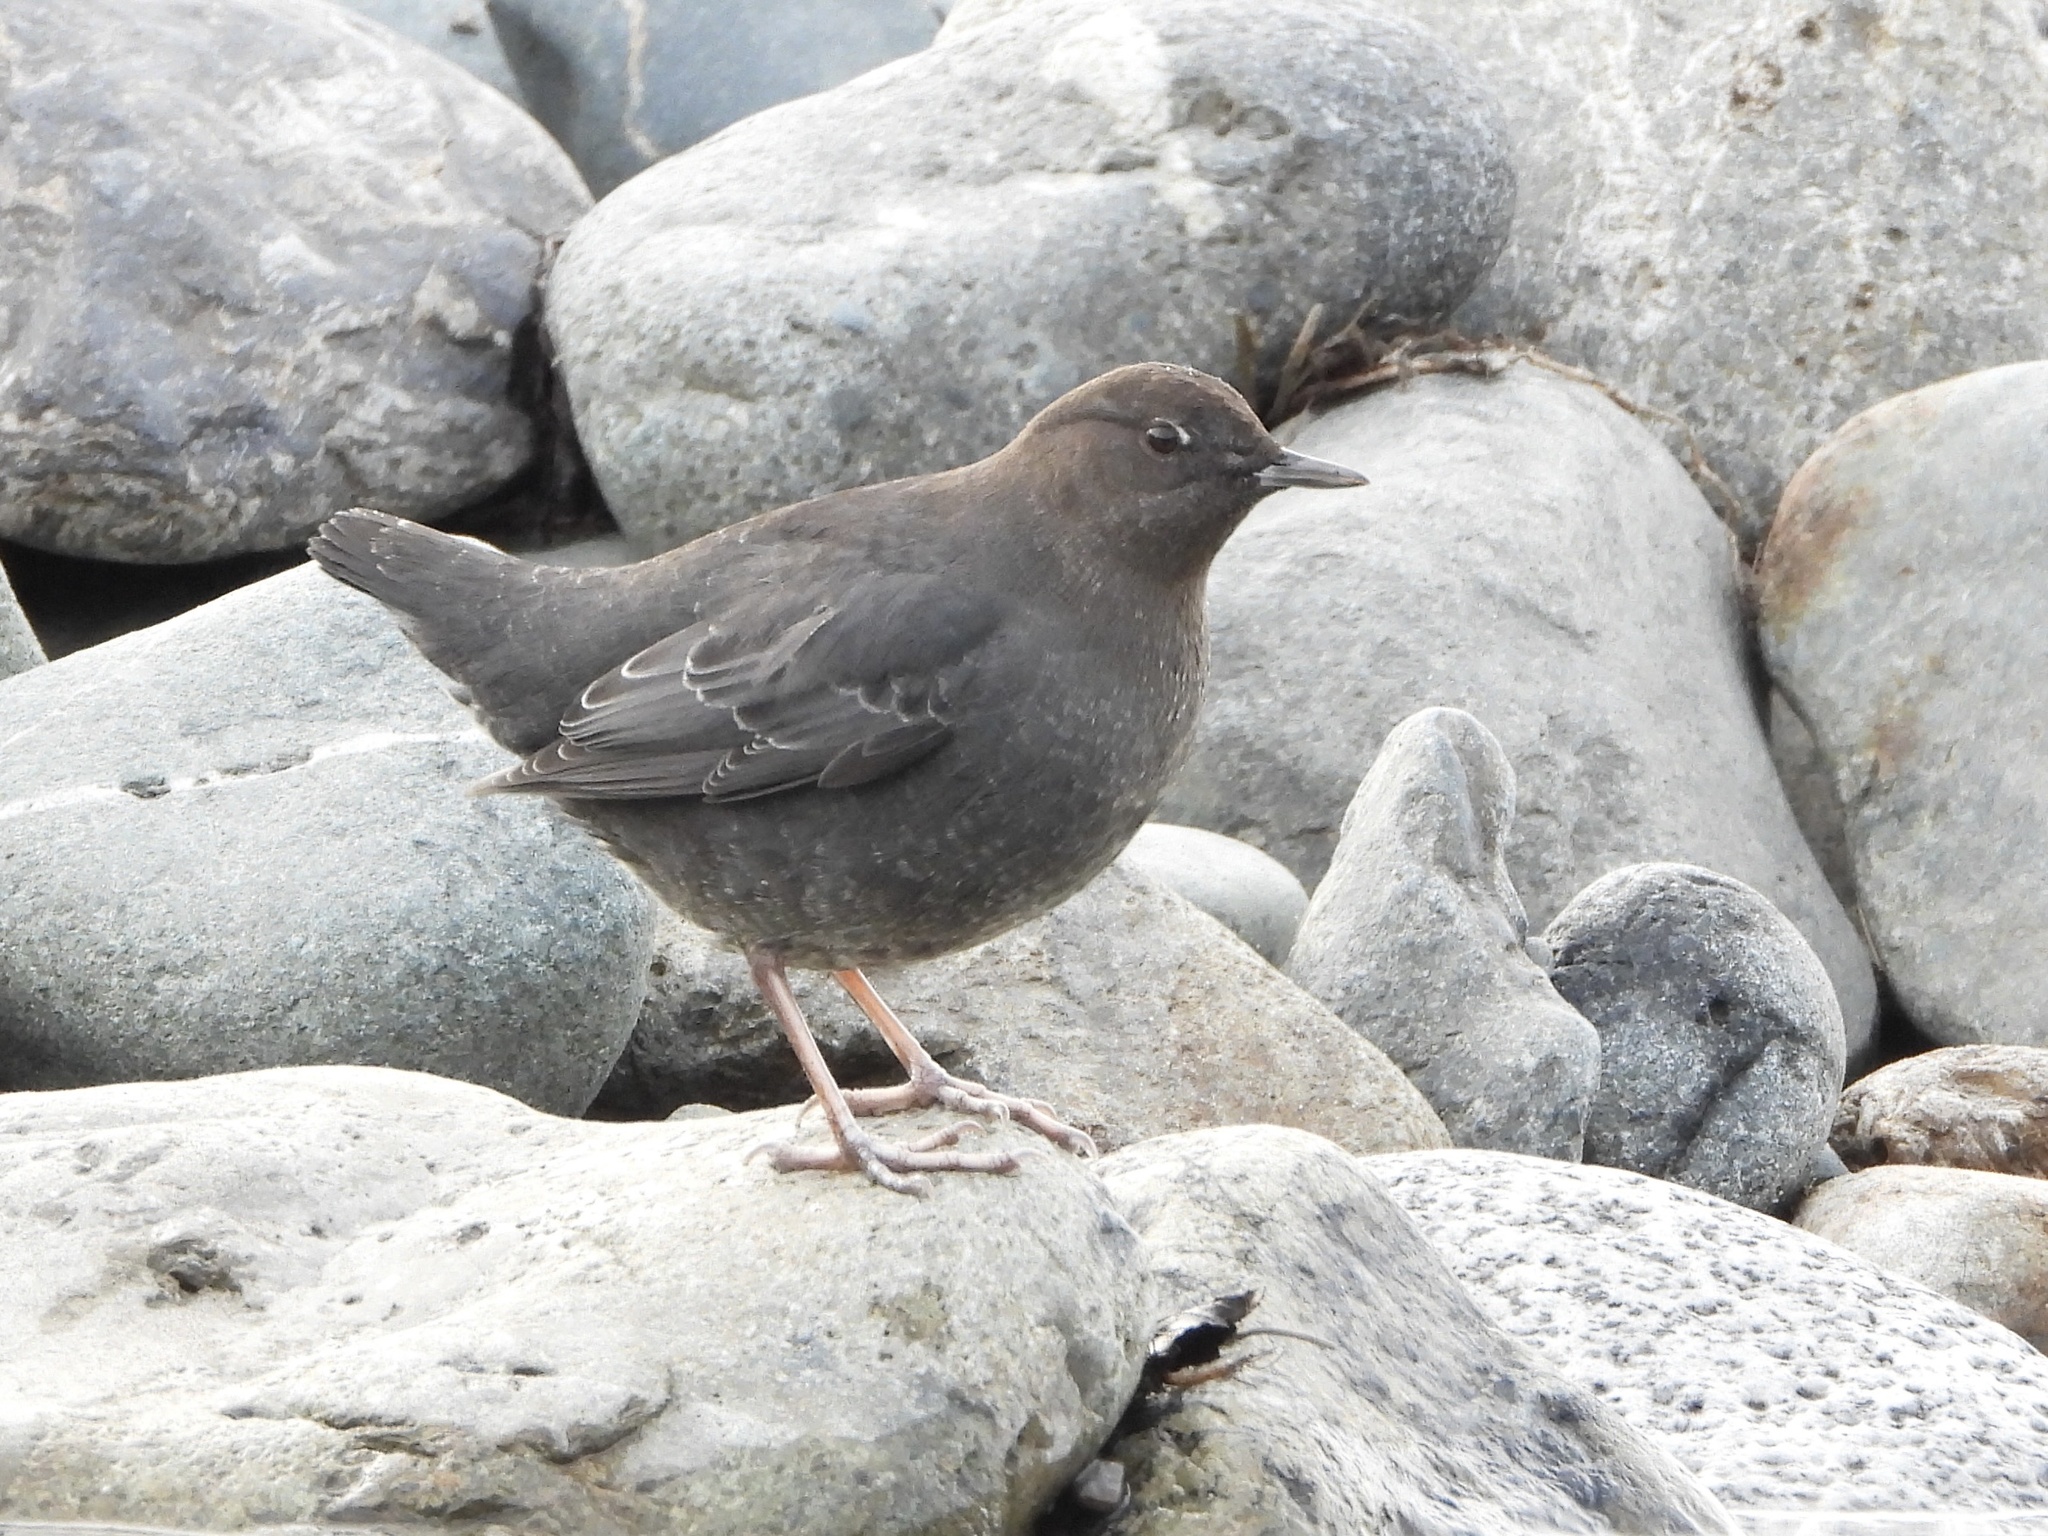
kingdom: Animalia
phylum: Chordata
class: Aves
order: Passeriformes
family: Cinclidae
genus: Cinclus
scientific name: Cinclus mexicanus
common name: American dipper
